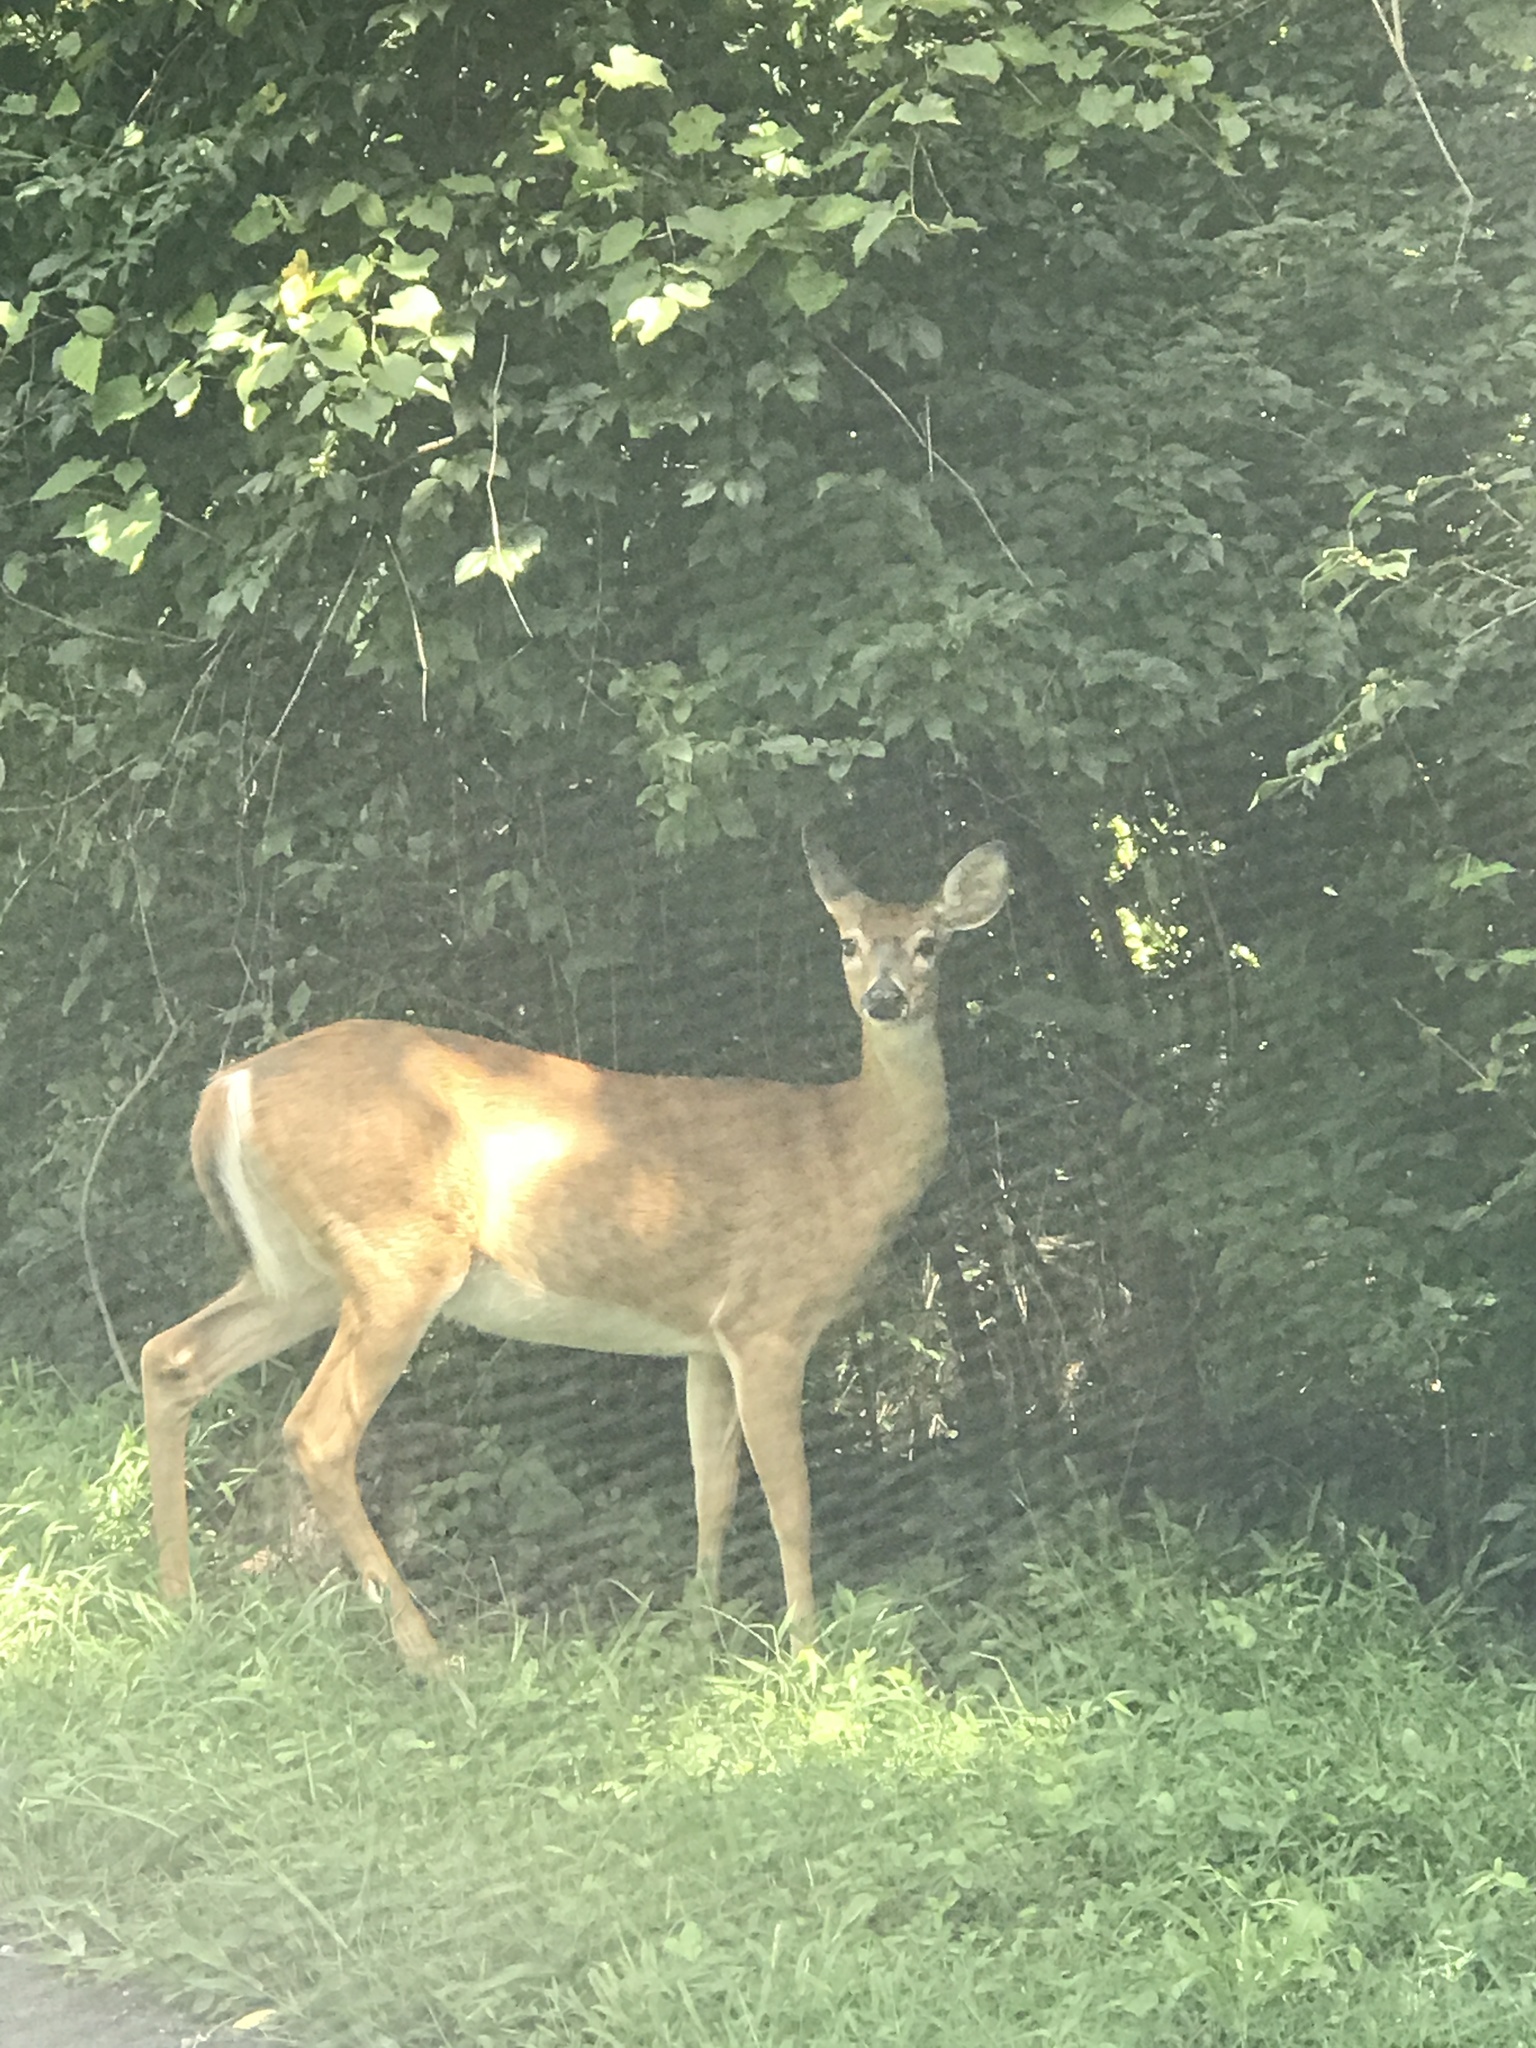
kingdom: Animalia
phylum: Chordata
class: Mammalia
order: Artiodactyla
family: Cervidae
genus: Odocoileus
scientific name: Odocoileus virginianus
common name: White-tailed deer
